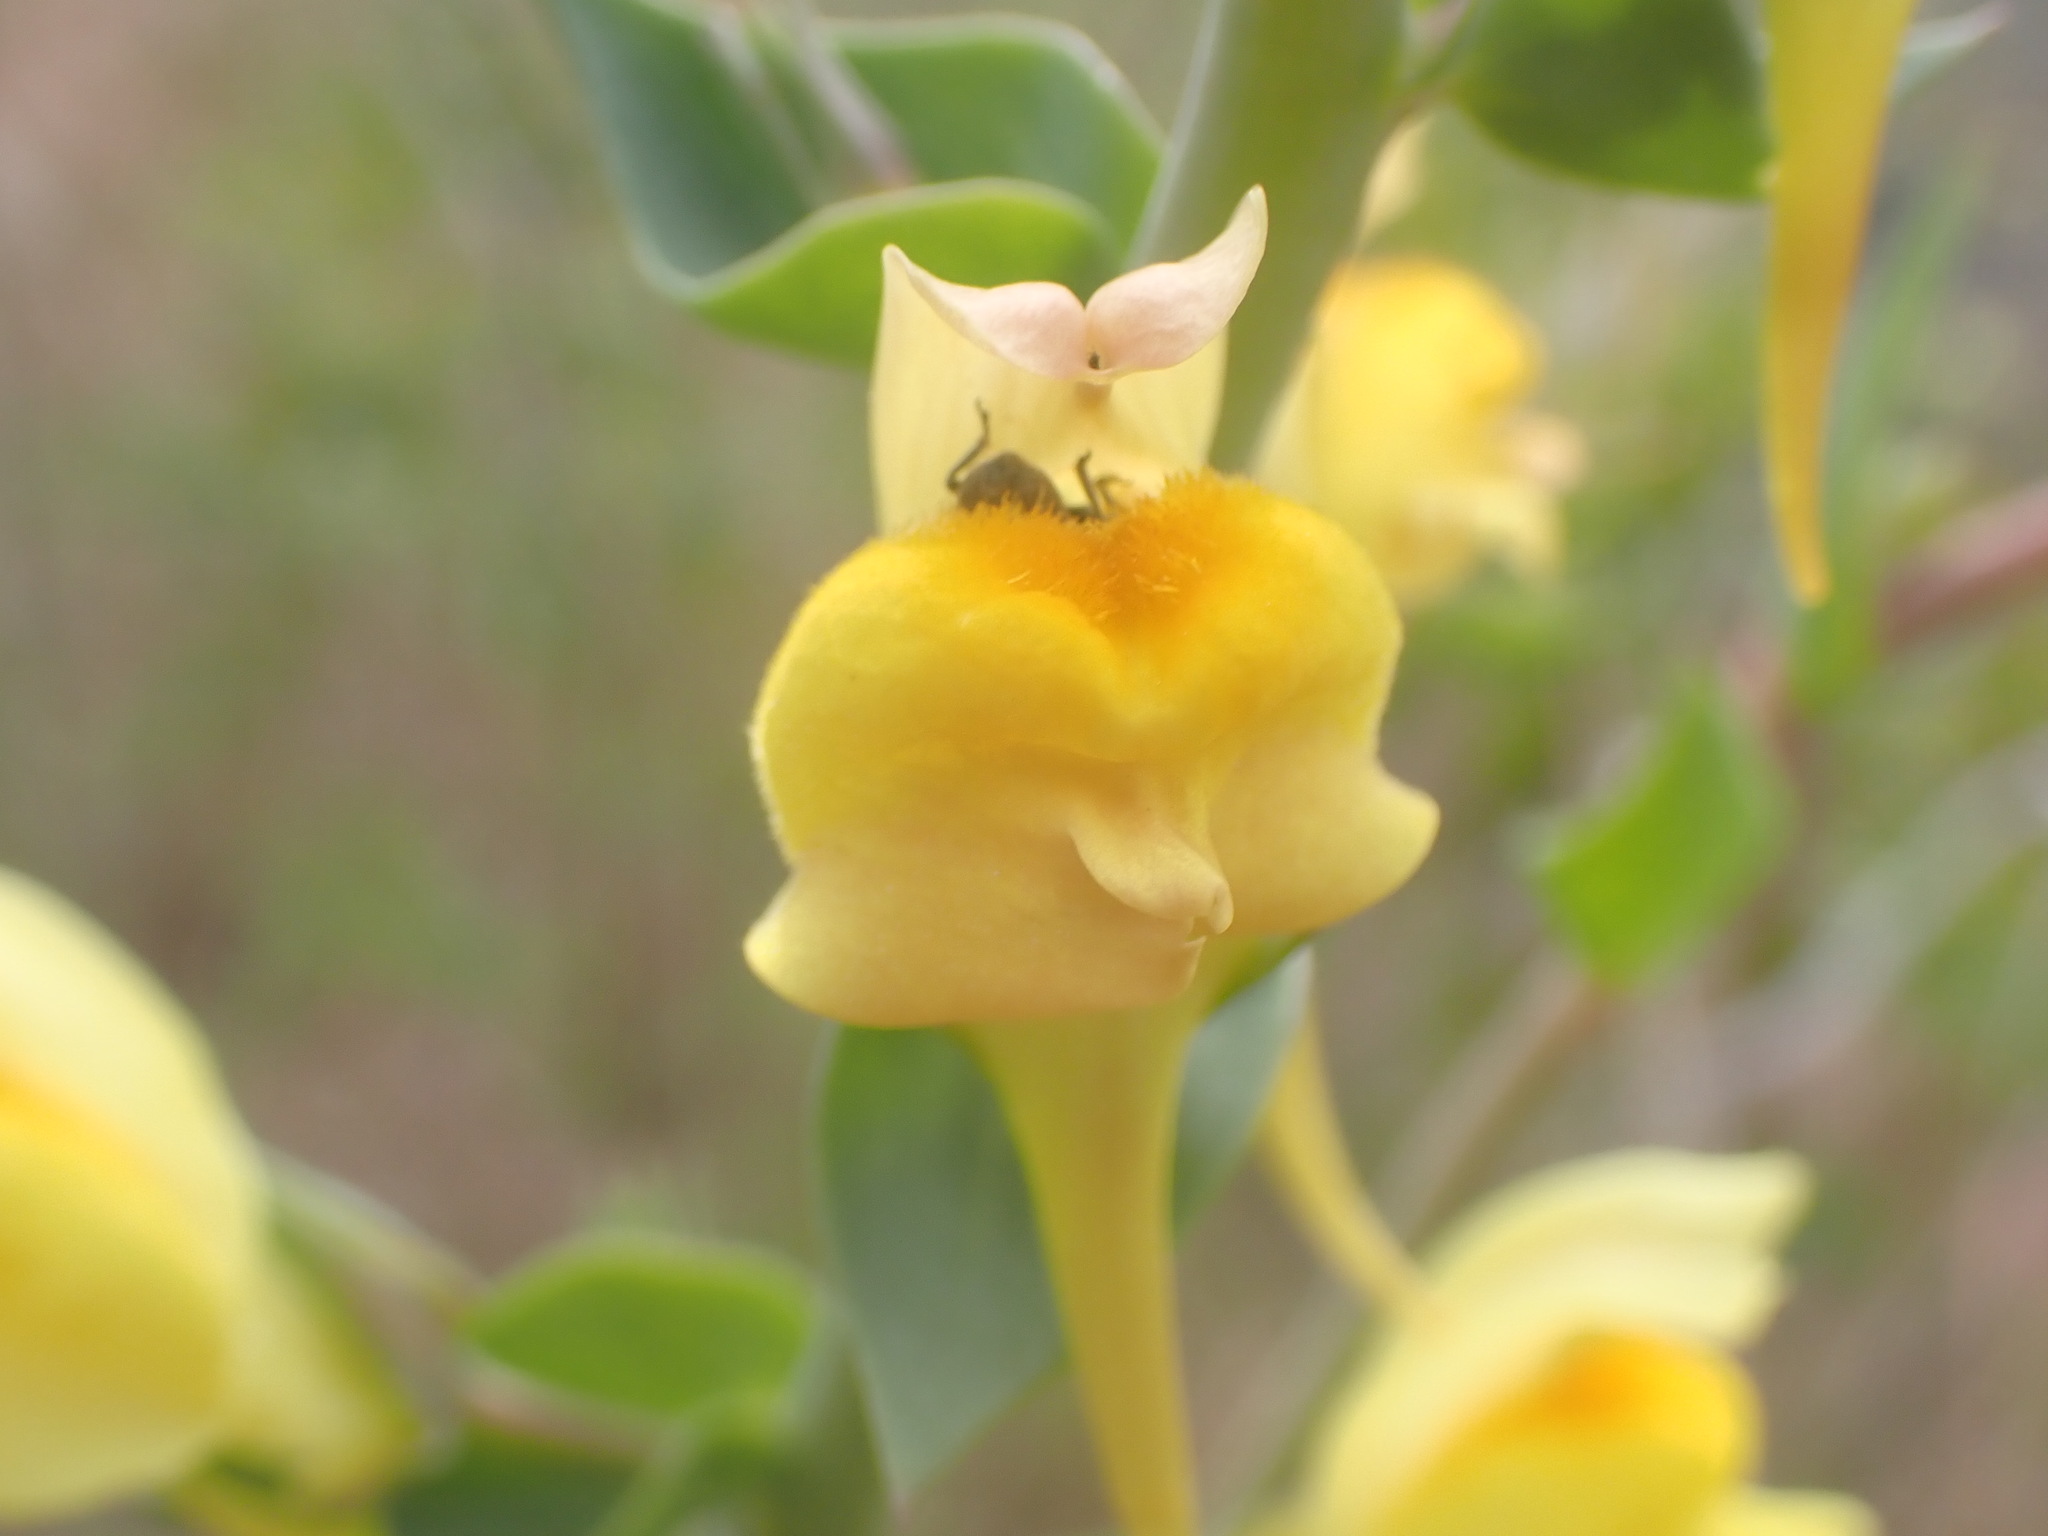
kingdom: Plantae
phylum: Tracheophyta
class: Magnoliopsida
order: Lamiales
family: Plantaginaceae
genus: Linaria
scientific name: Linaria dalmatica
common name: Dalmatian toadflax
